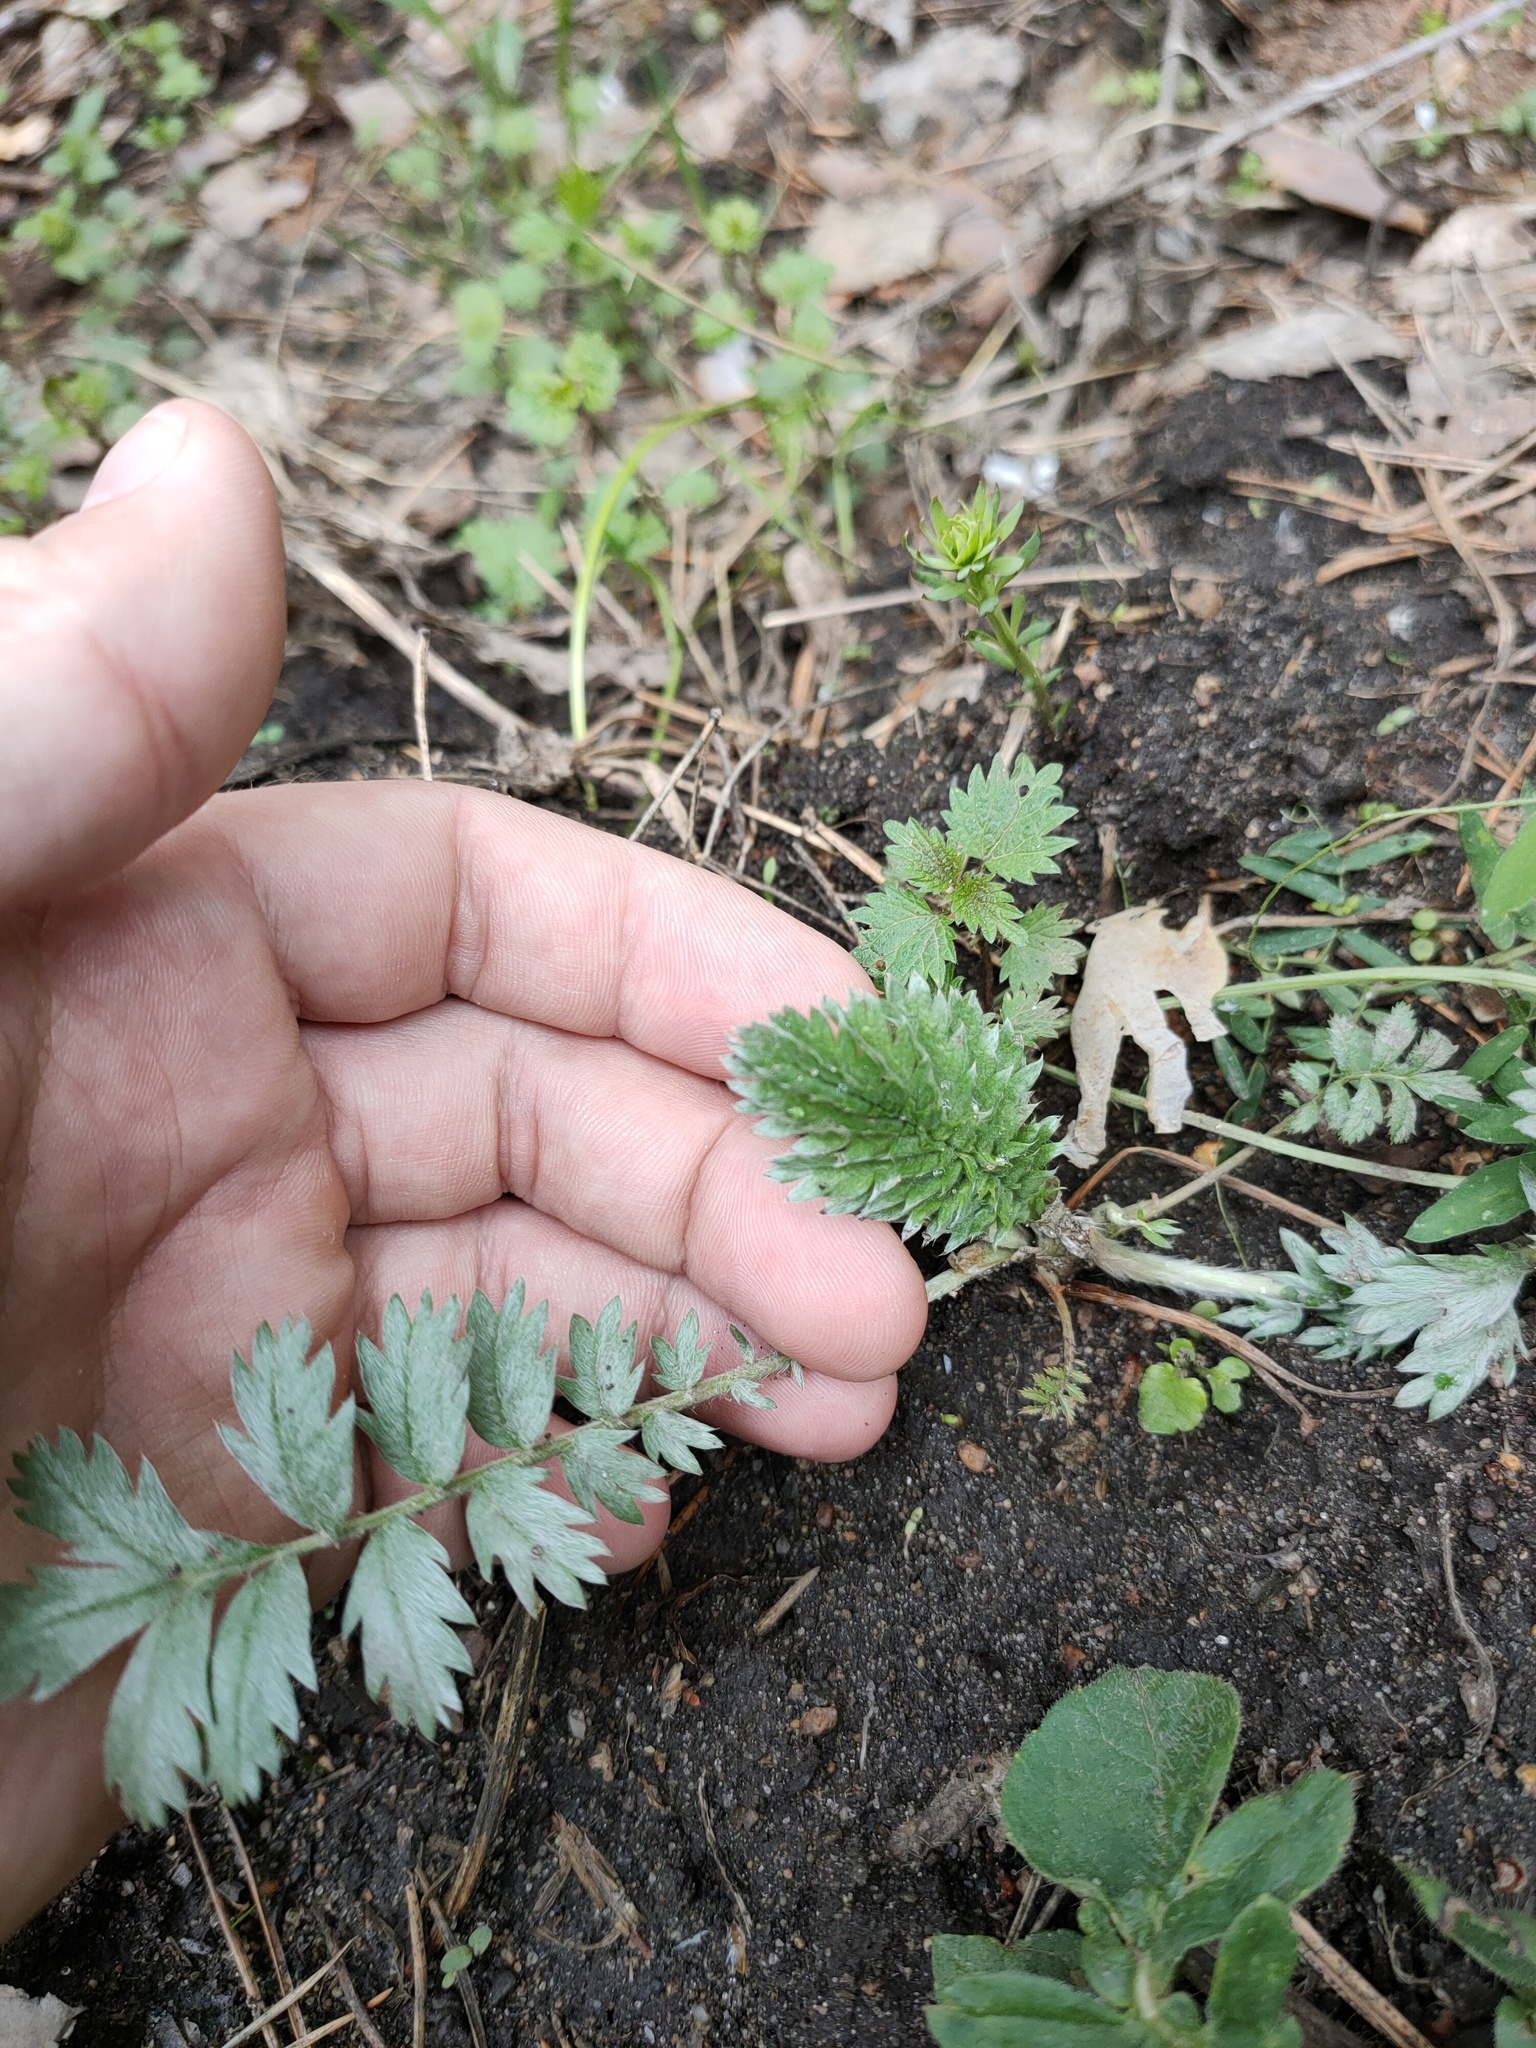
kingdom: Plantae
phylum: Tracheophyta
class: Magnoliopsida
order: Rosales
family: Rosaceae
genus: Argentina
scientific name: Argentina anserina
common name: Common silverweed
